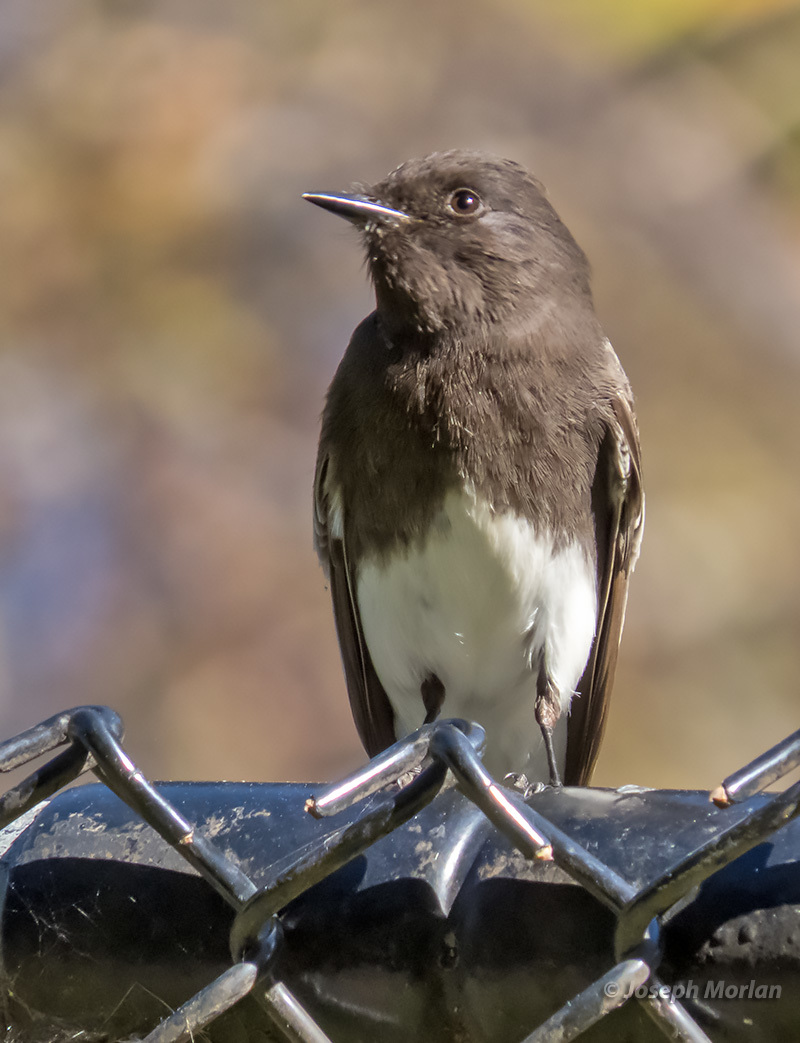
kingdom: Animalia
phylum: Chordata
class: Aves
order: Passeriformes
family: Tyrannidae
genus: Sayornis
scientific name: Sayornis nigricans
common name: Black phoebe
